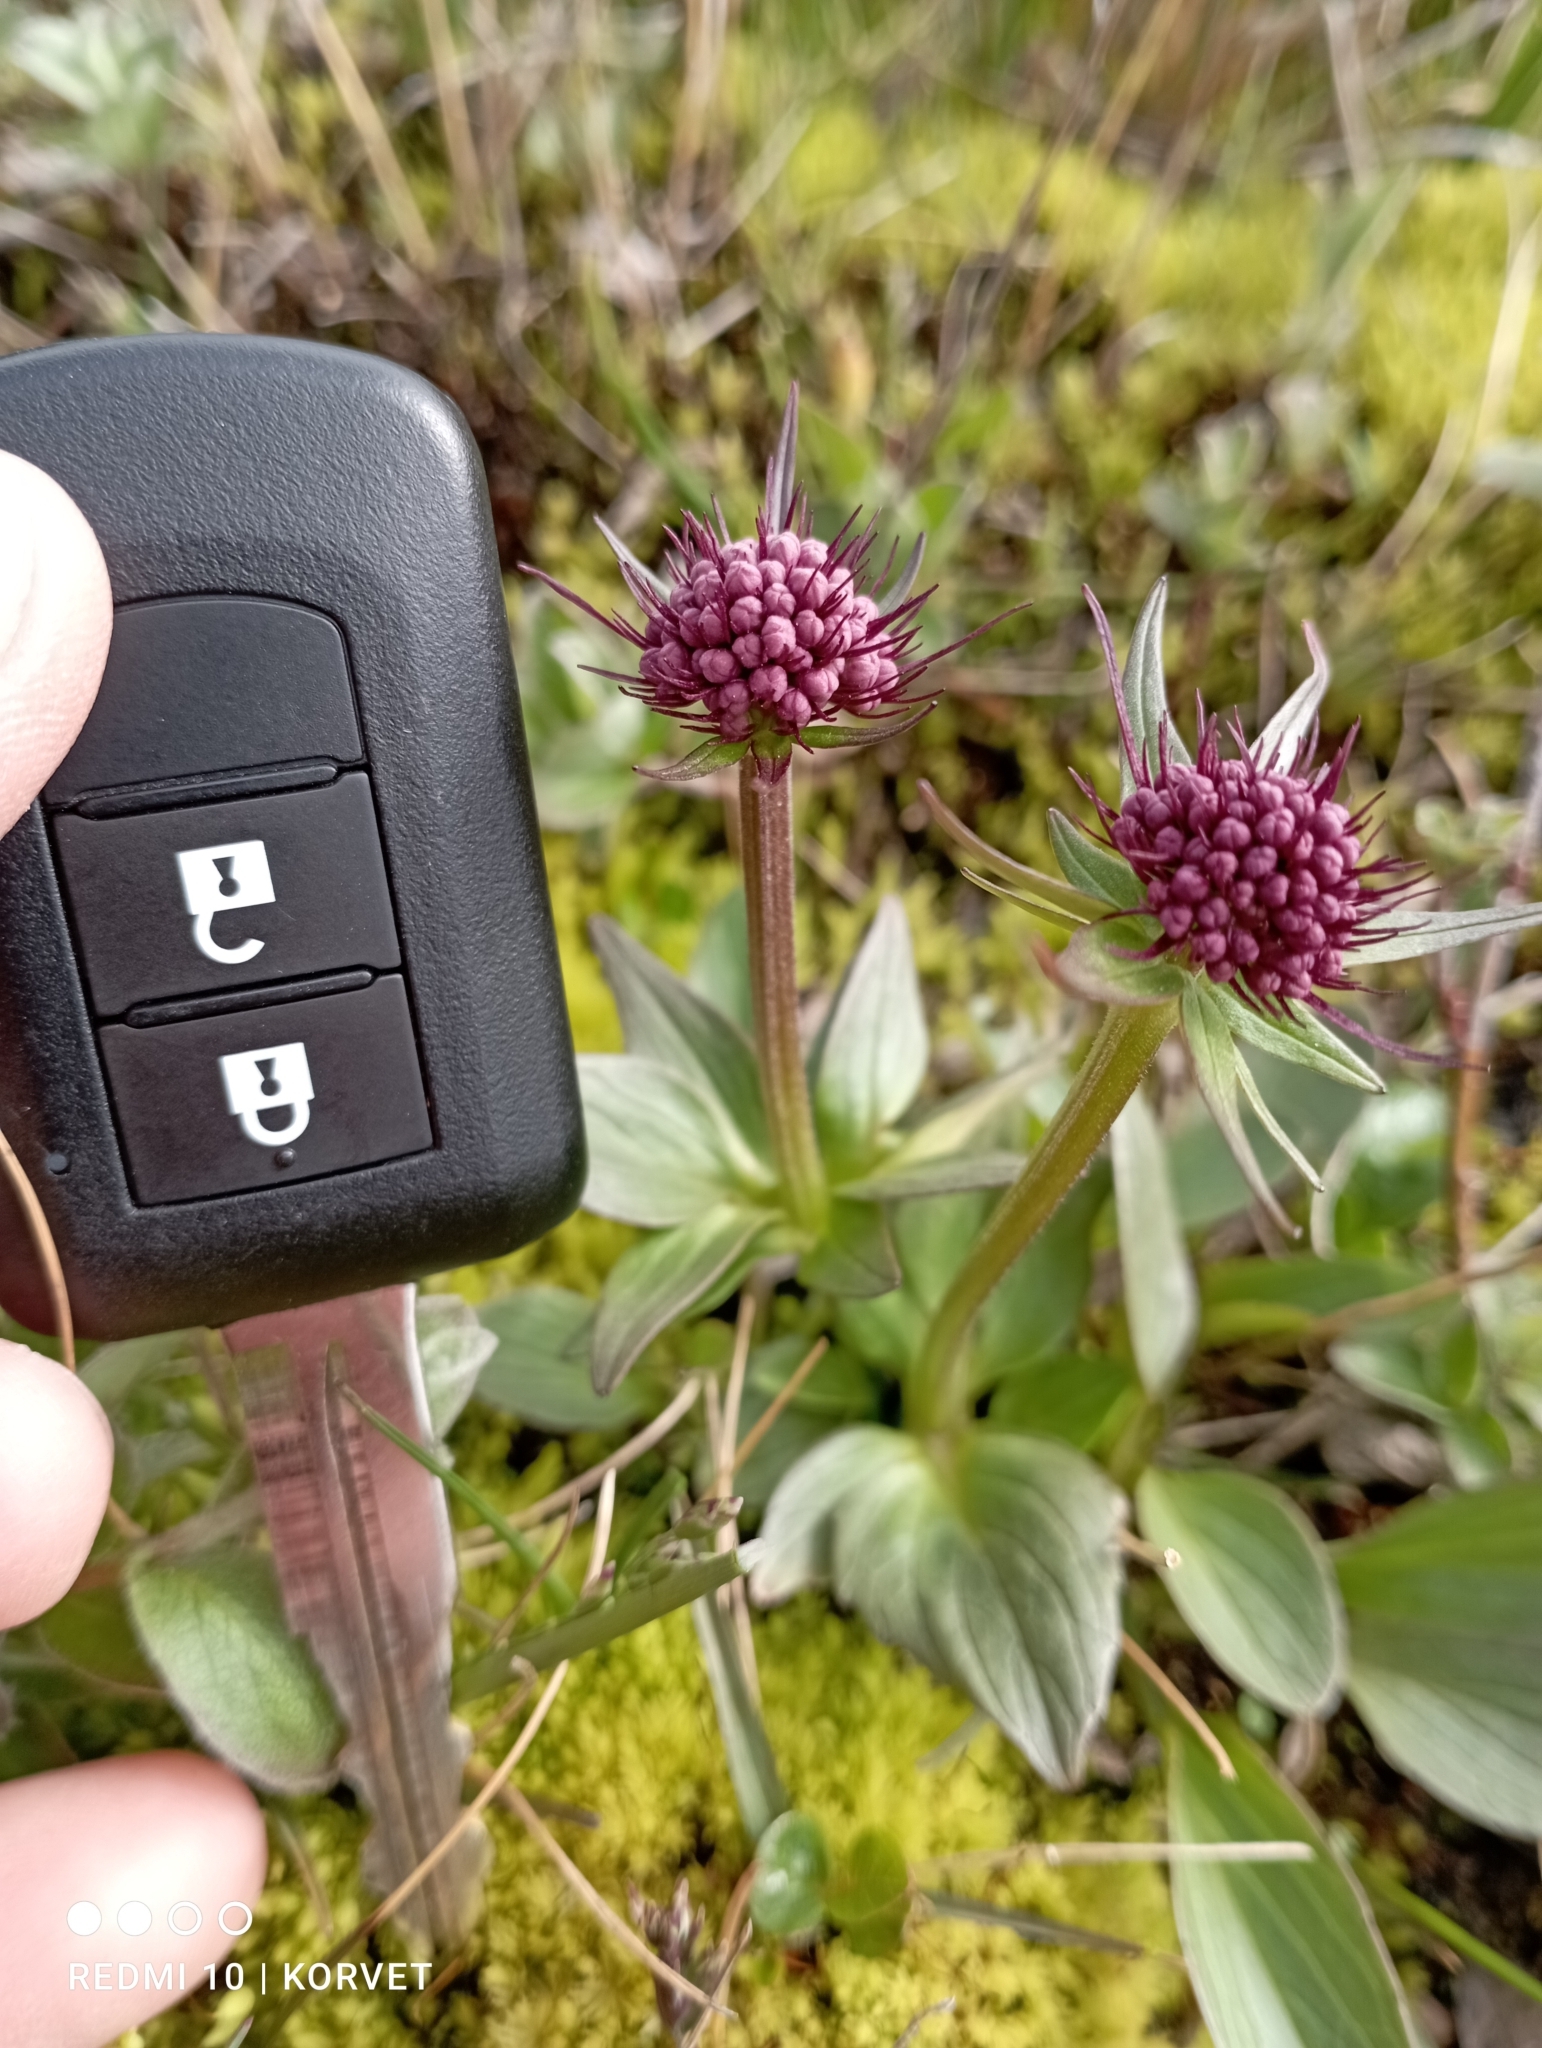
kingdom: Plantae
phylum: Tracheophyta
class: Magnoliopsida
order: Dipsacales
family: Caprifoliaceae
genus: Valeriana
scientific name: Valeriana capitata
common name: Capitate valerian
